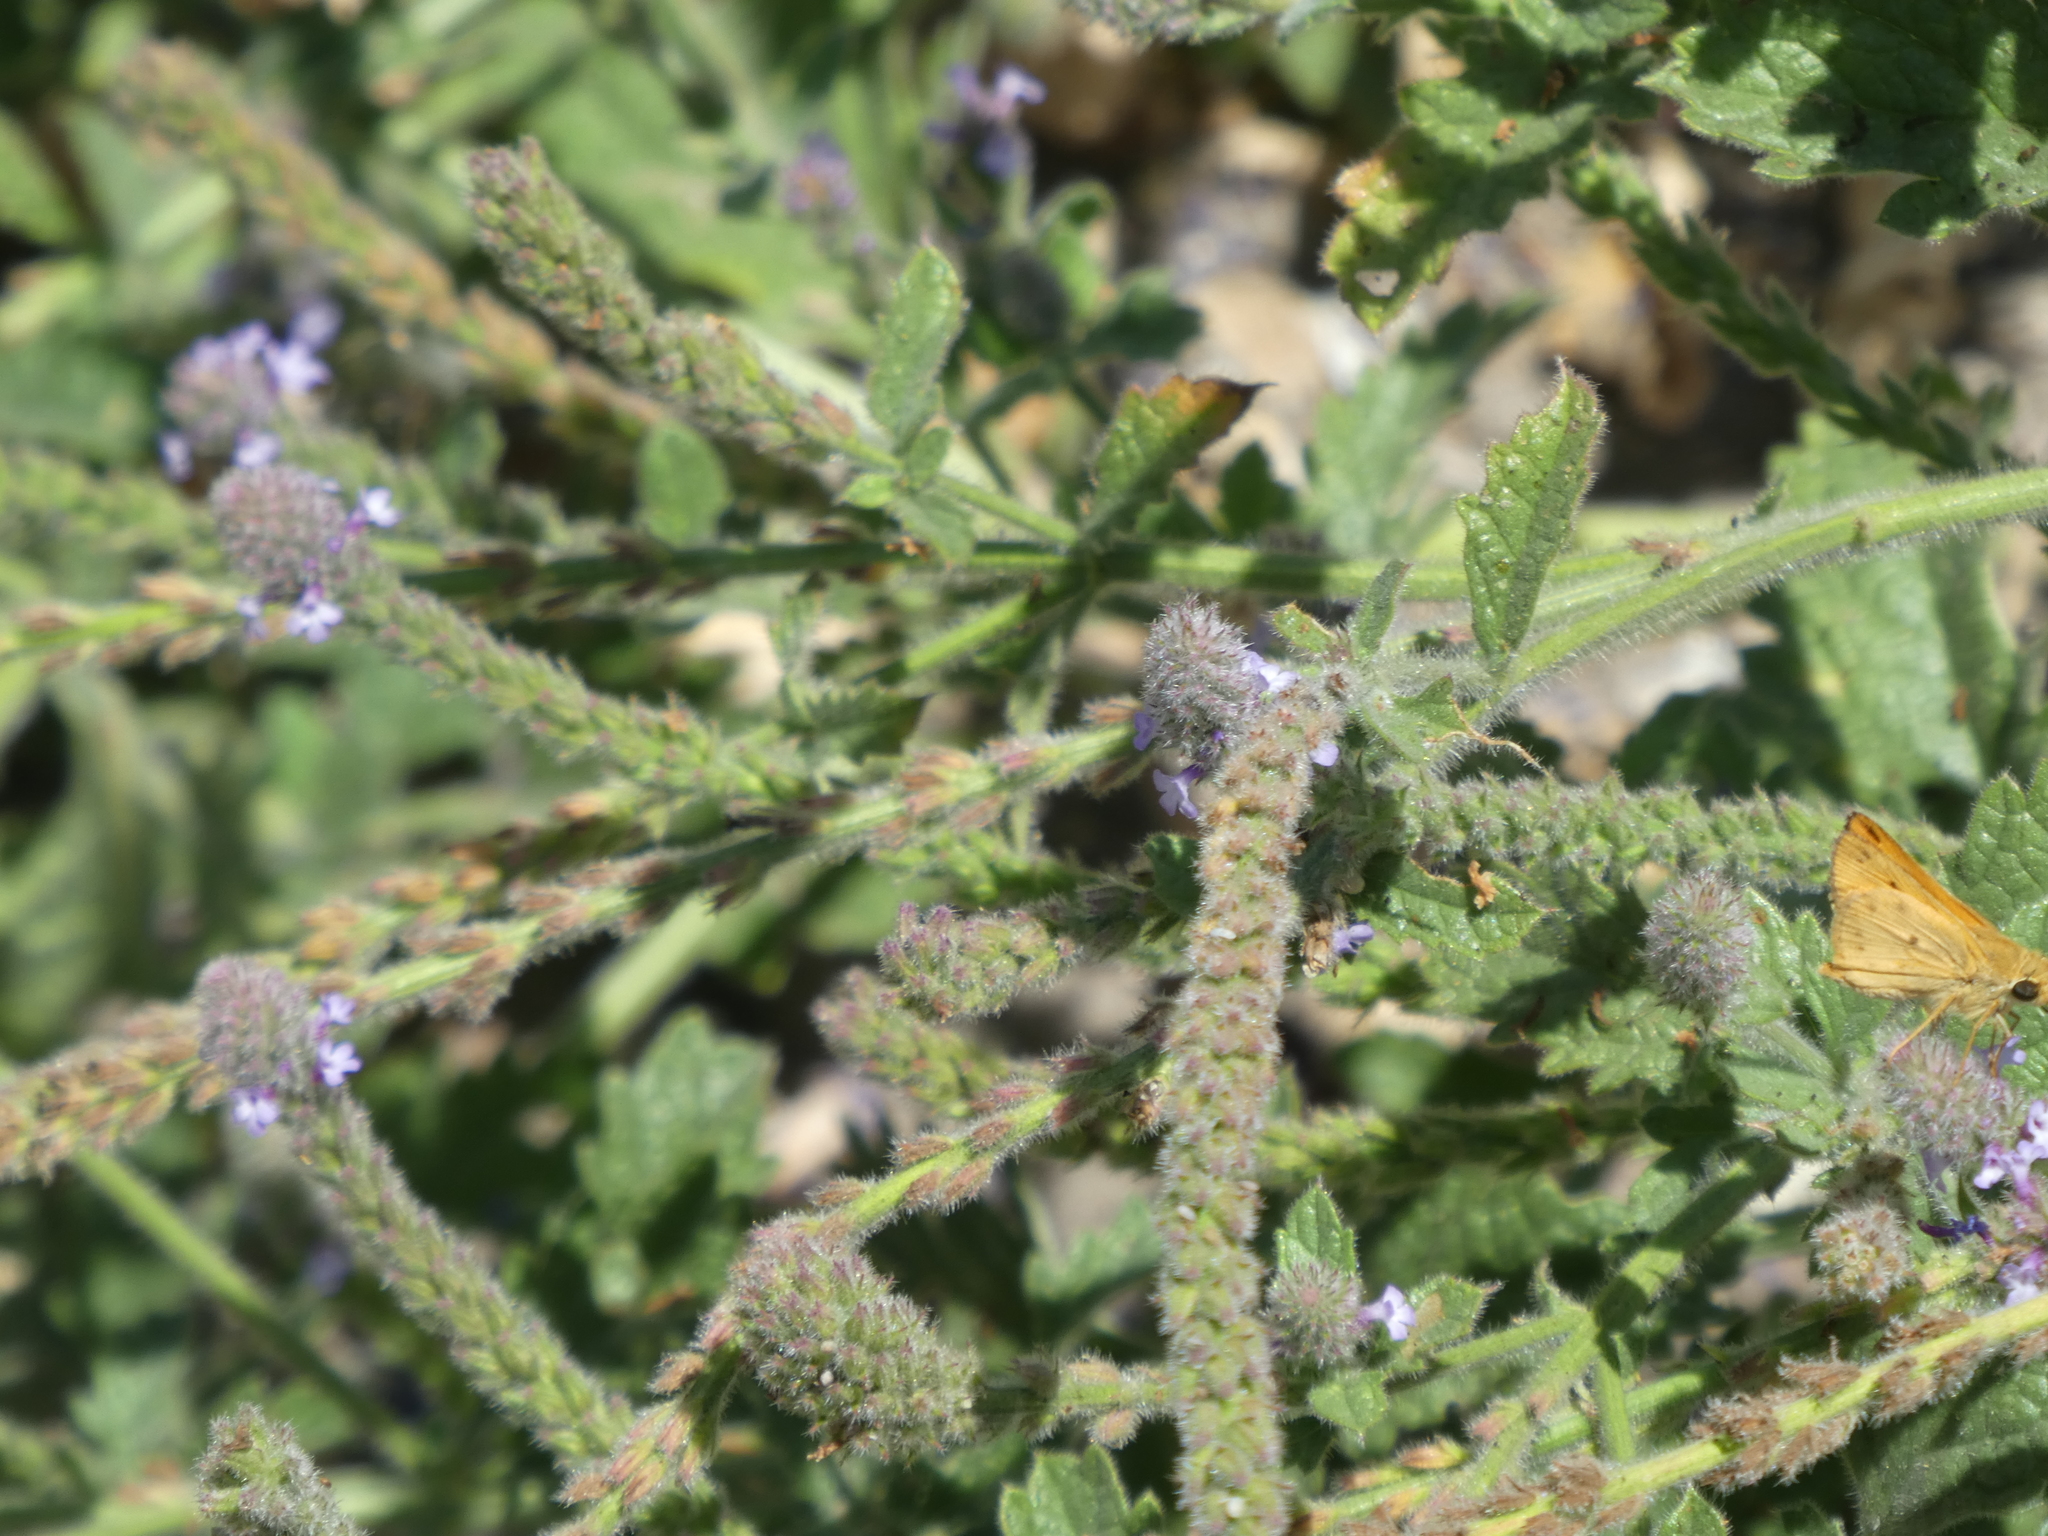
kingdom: Animalia
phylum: Arthropoda
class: Insecta
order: Lepidoptera
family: Hesperiidae
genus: Hylephila
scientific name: Hylephila phyleus
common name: Fiery skipper
